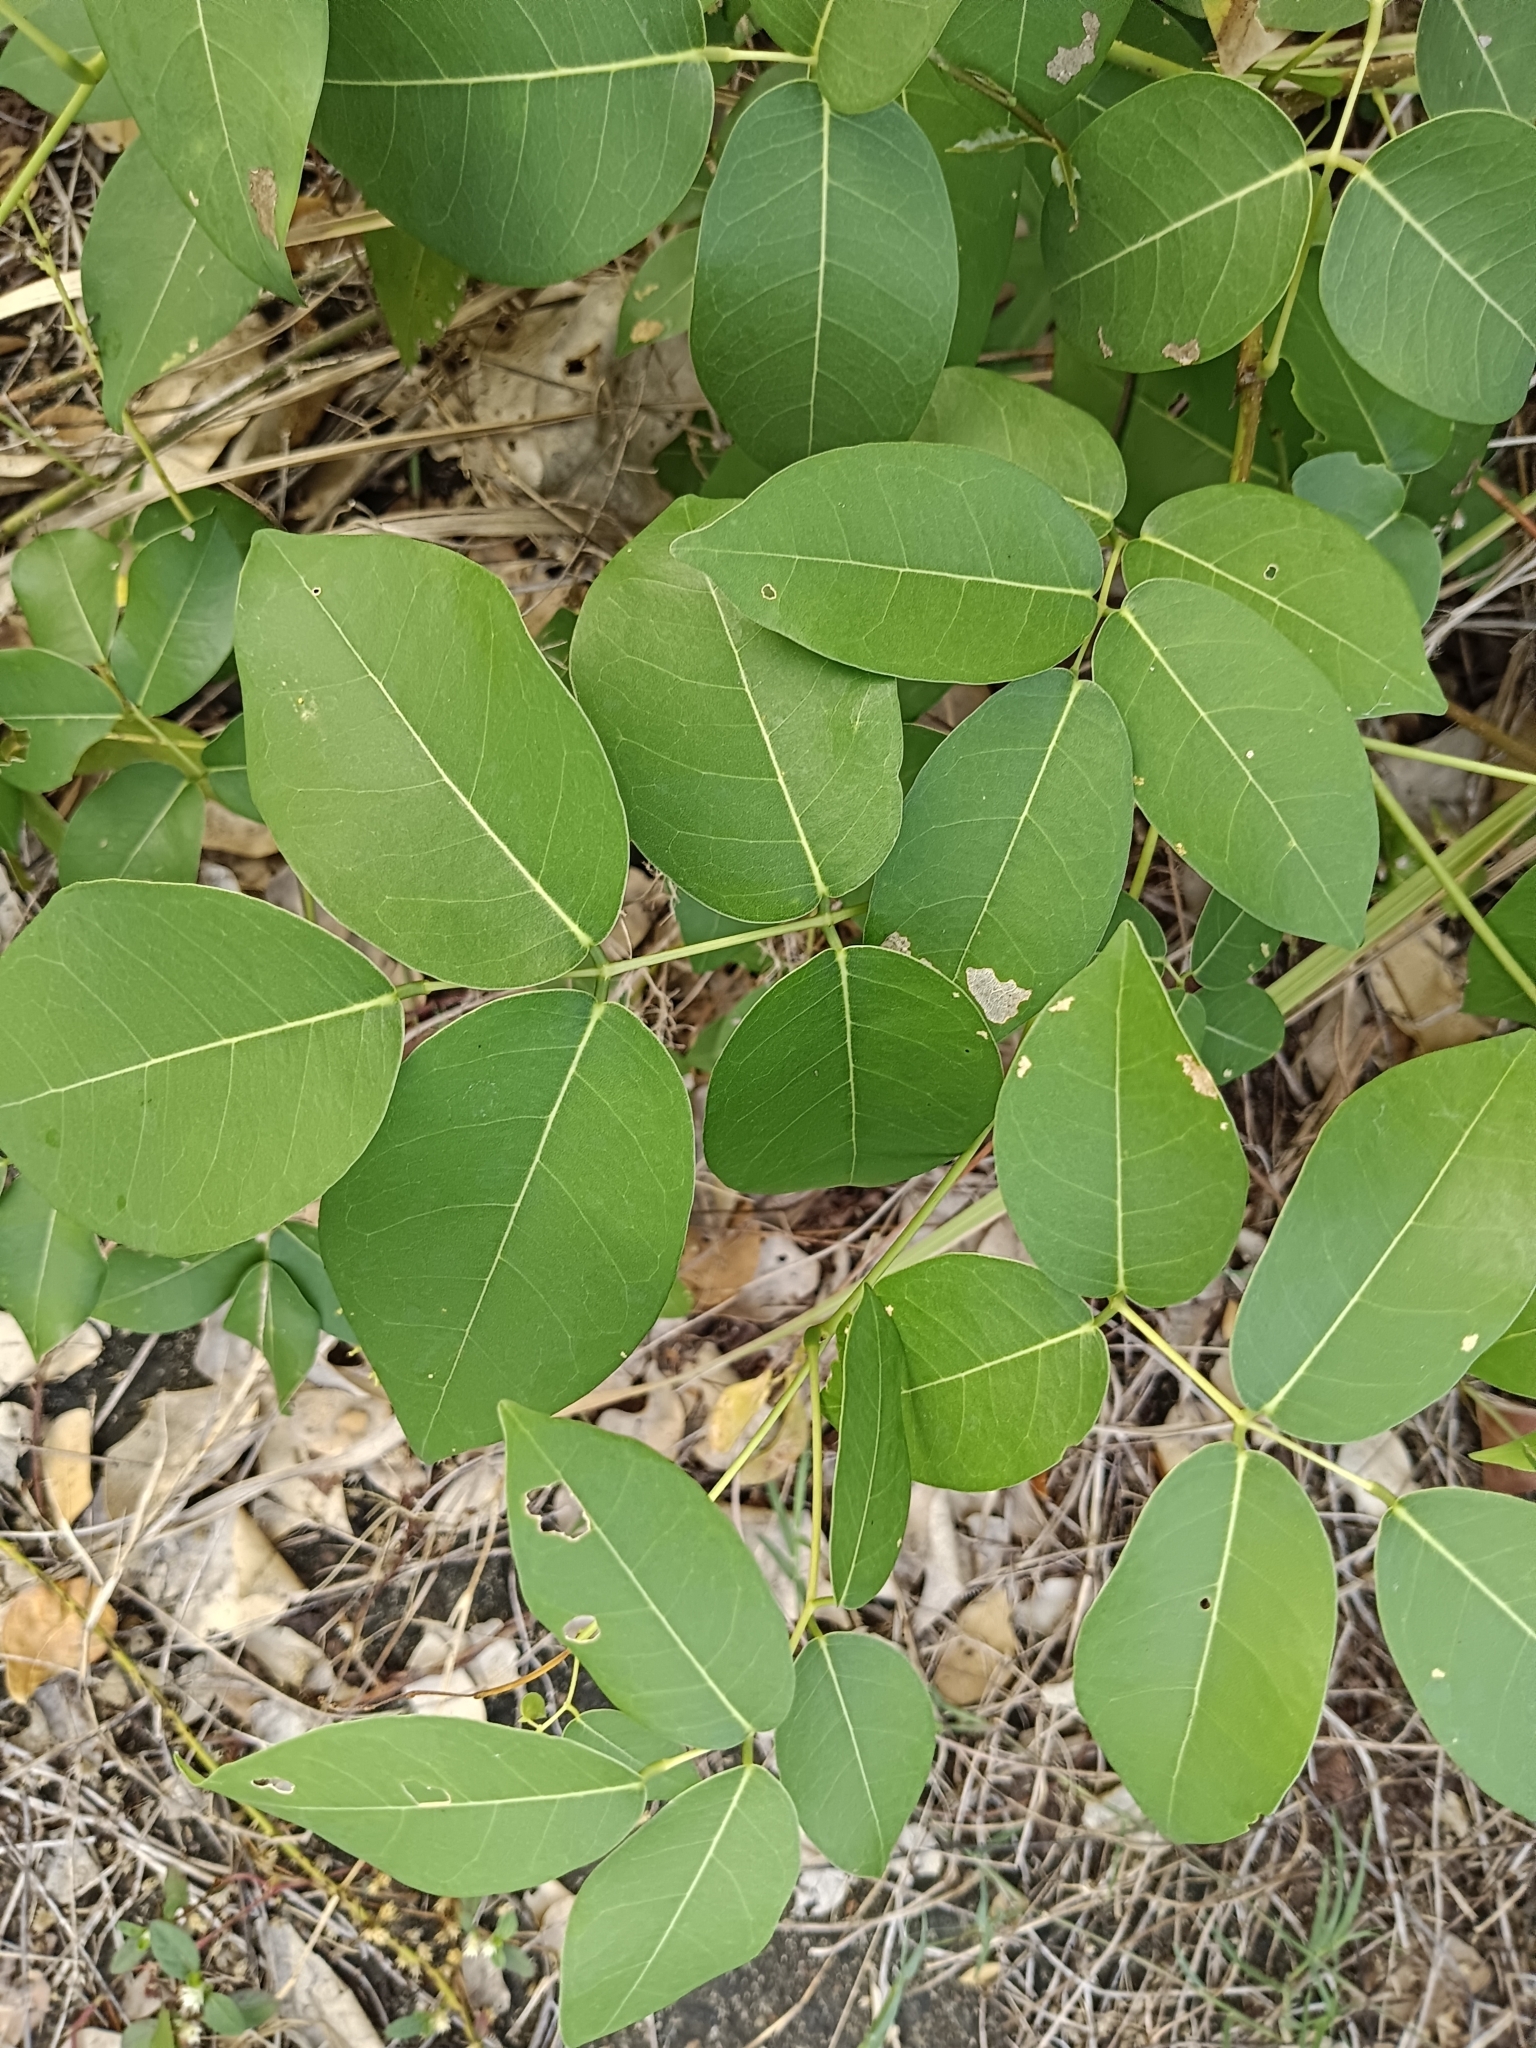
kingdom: Plantae
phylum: Tracheophyta
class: Magnoliopsida
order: Fabales
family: Fabaceae
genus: Derris
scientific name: Derris trifoliata
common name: Three-leaf derris
